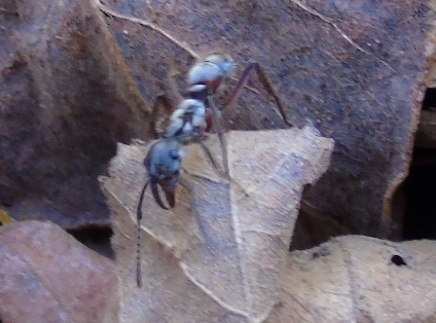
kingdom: Animalia
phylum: Arthropoda
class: Insecta
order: Hymenoptera
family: Formicidae
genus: Pachycondyla
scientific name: Pachycondyla villosa
